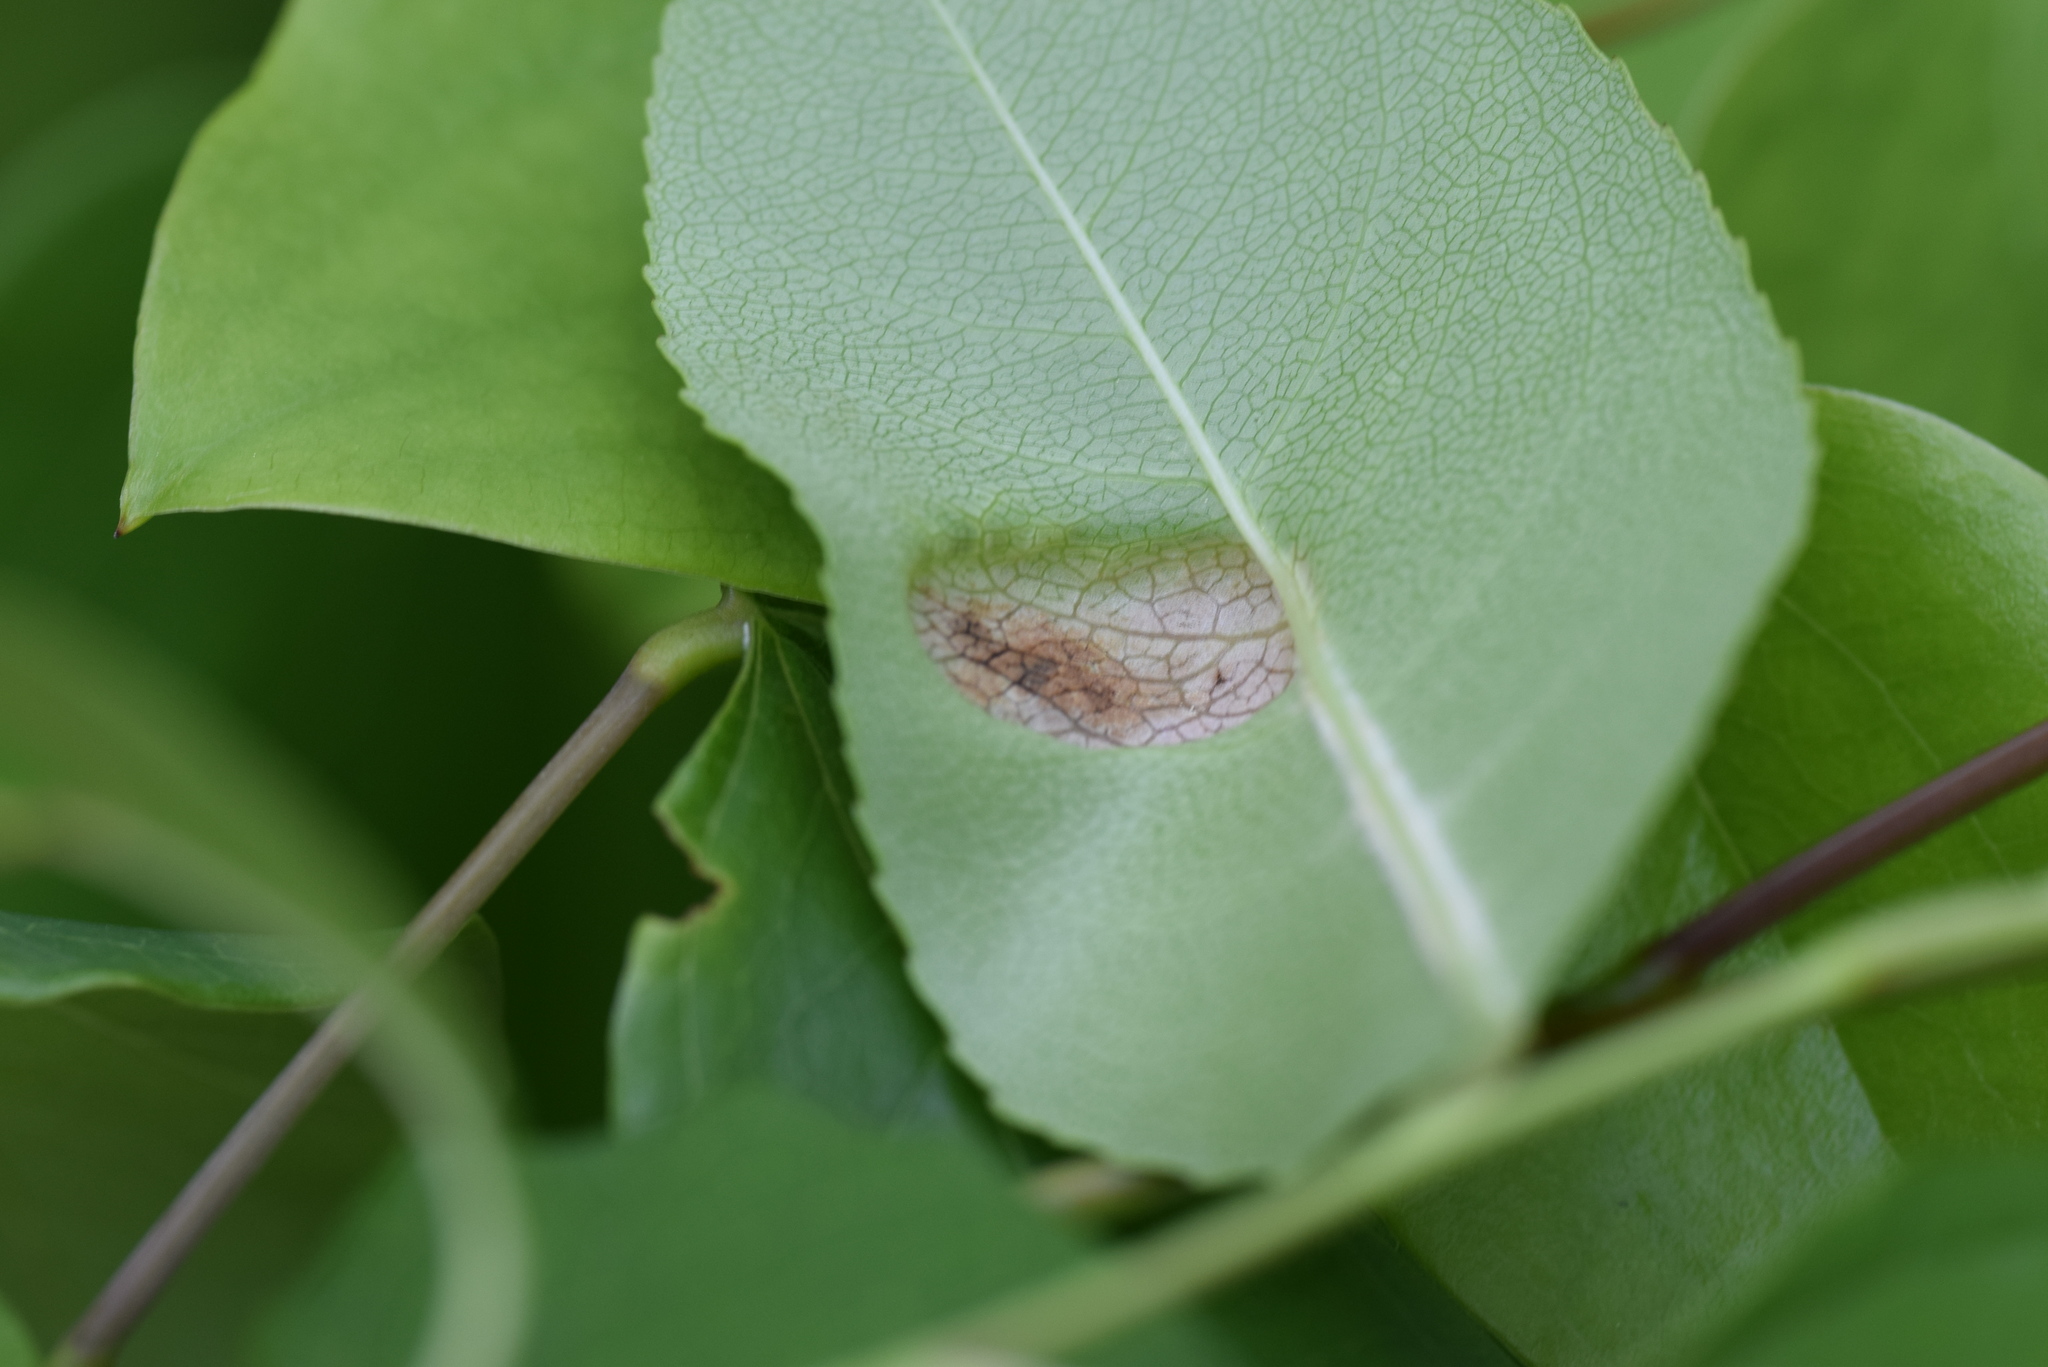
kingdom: Fungi
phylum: Ascomycota
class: Taphrinomycetes
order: Taphrinales
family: Taphrinaceae
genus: Taphrina
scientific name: Taphrina farlowii
